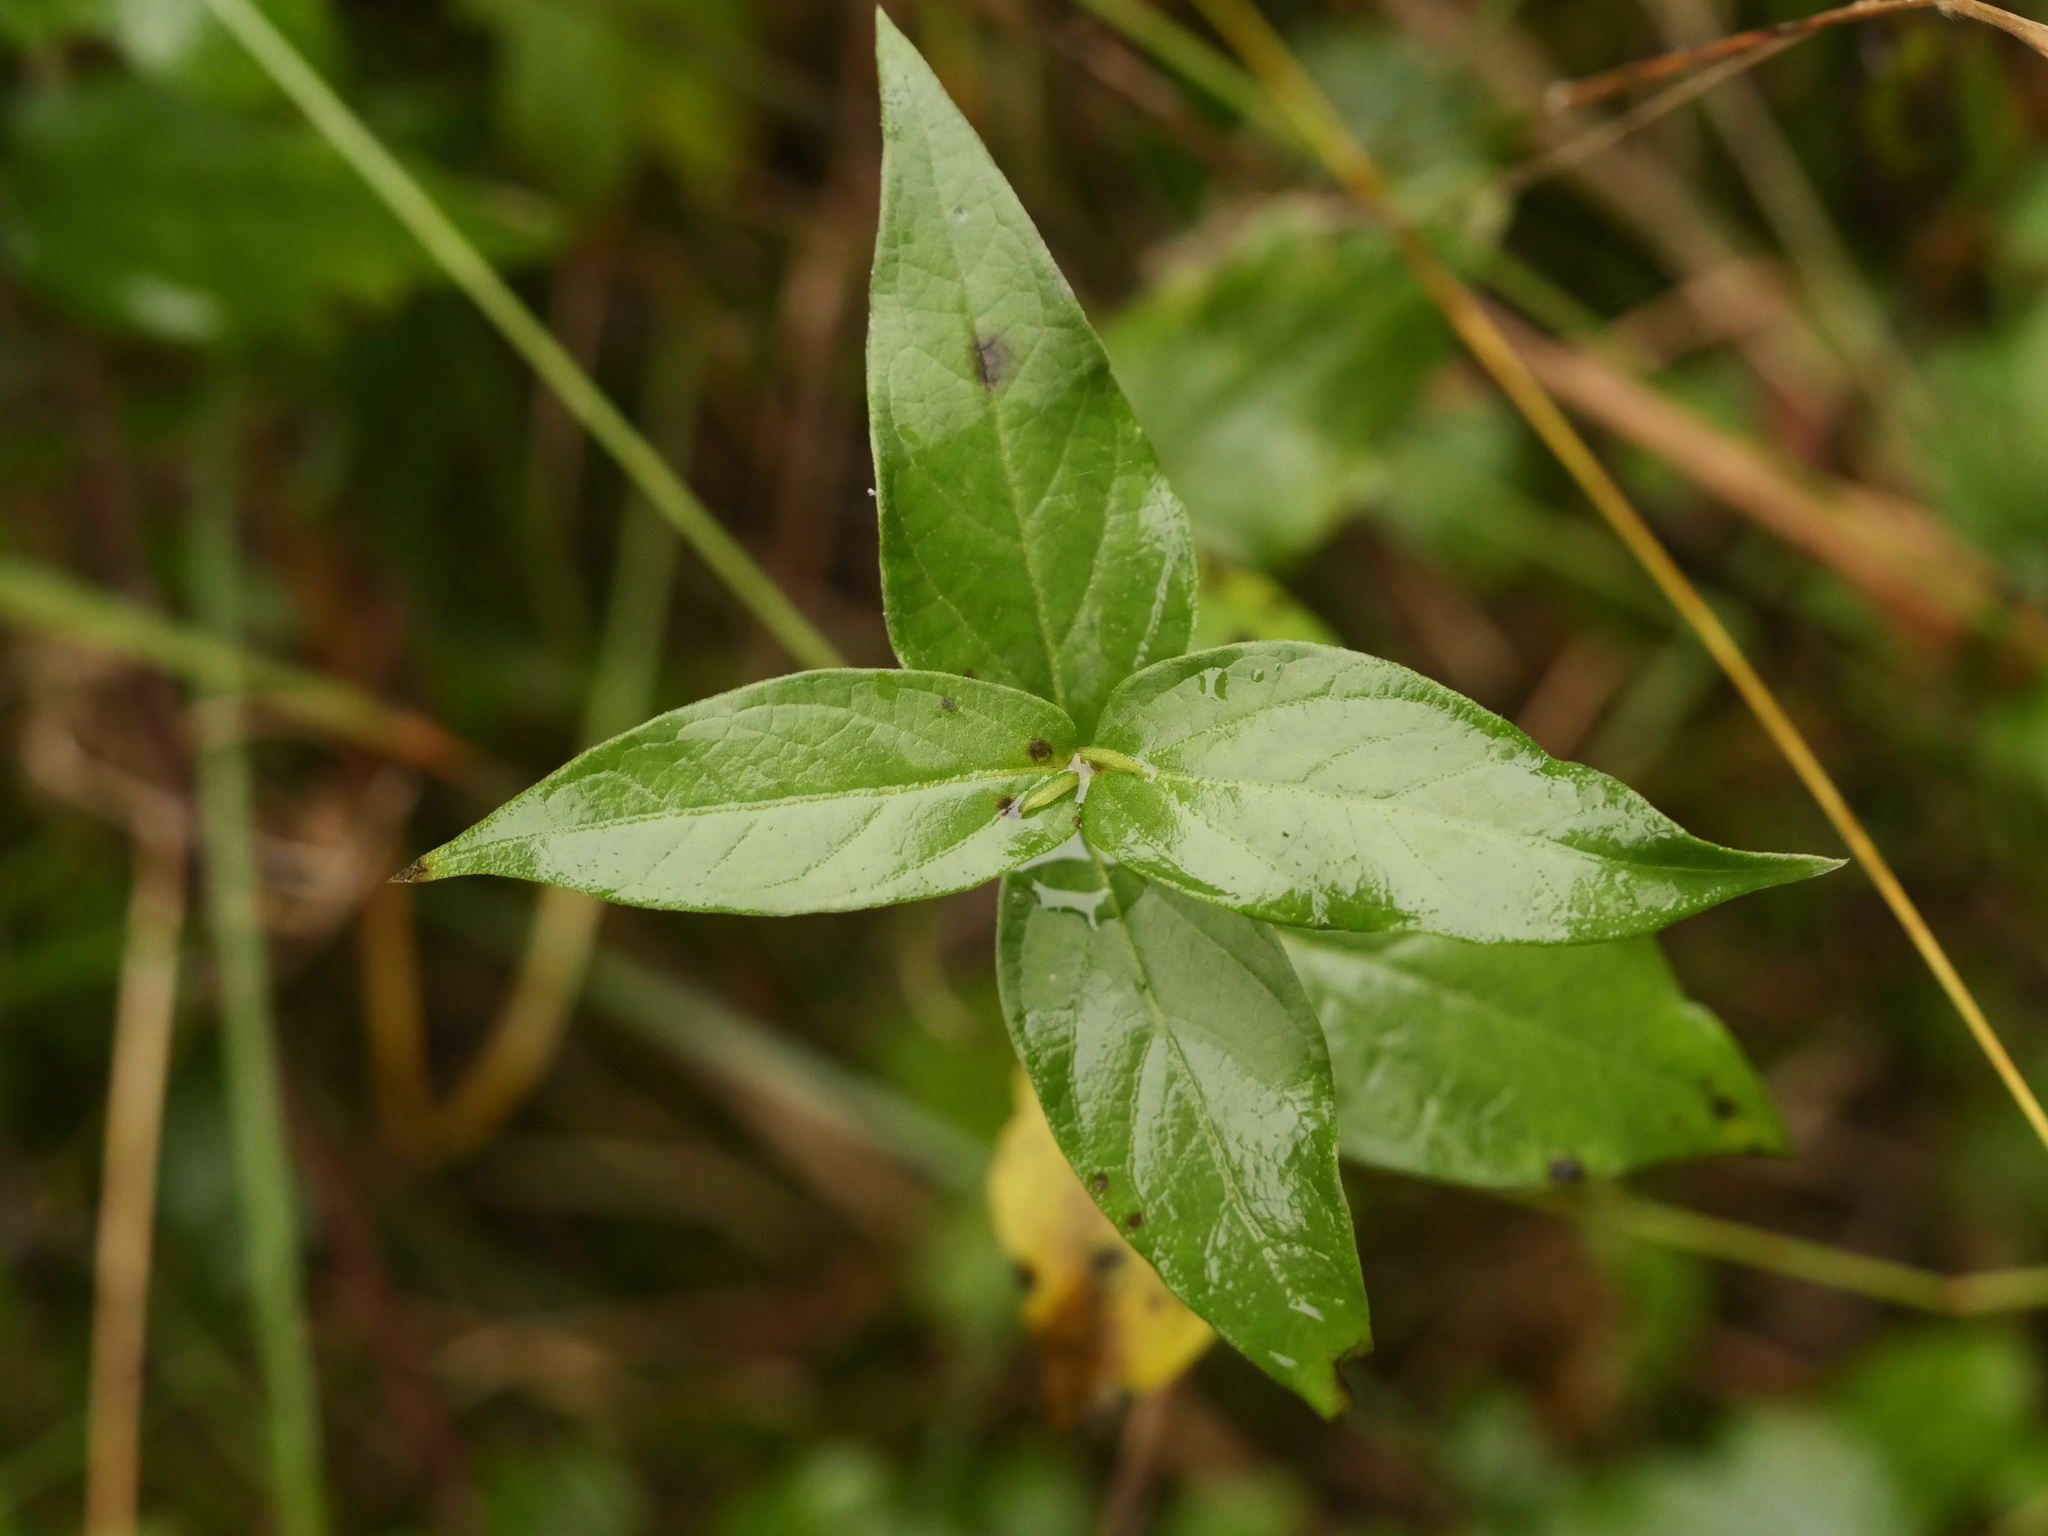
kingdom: Plantae
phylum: Tracheophyta
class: Magnoliopsida
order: Gentianales
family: Apocynaceae
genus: Vincetoxicum
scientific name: Vincetoxicum hirundinaria
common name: White swallowwort
